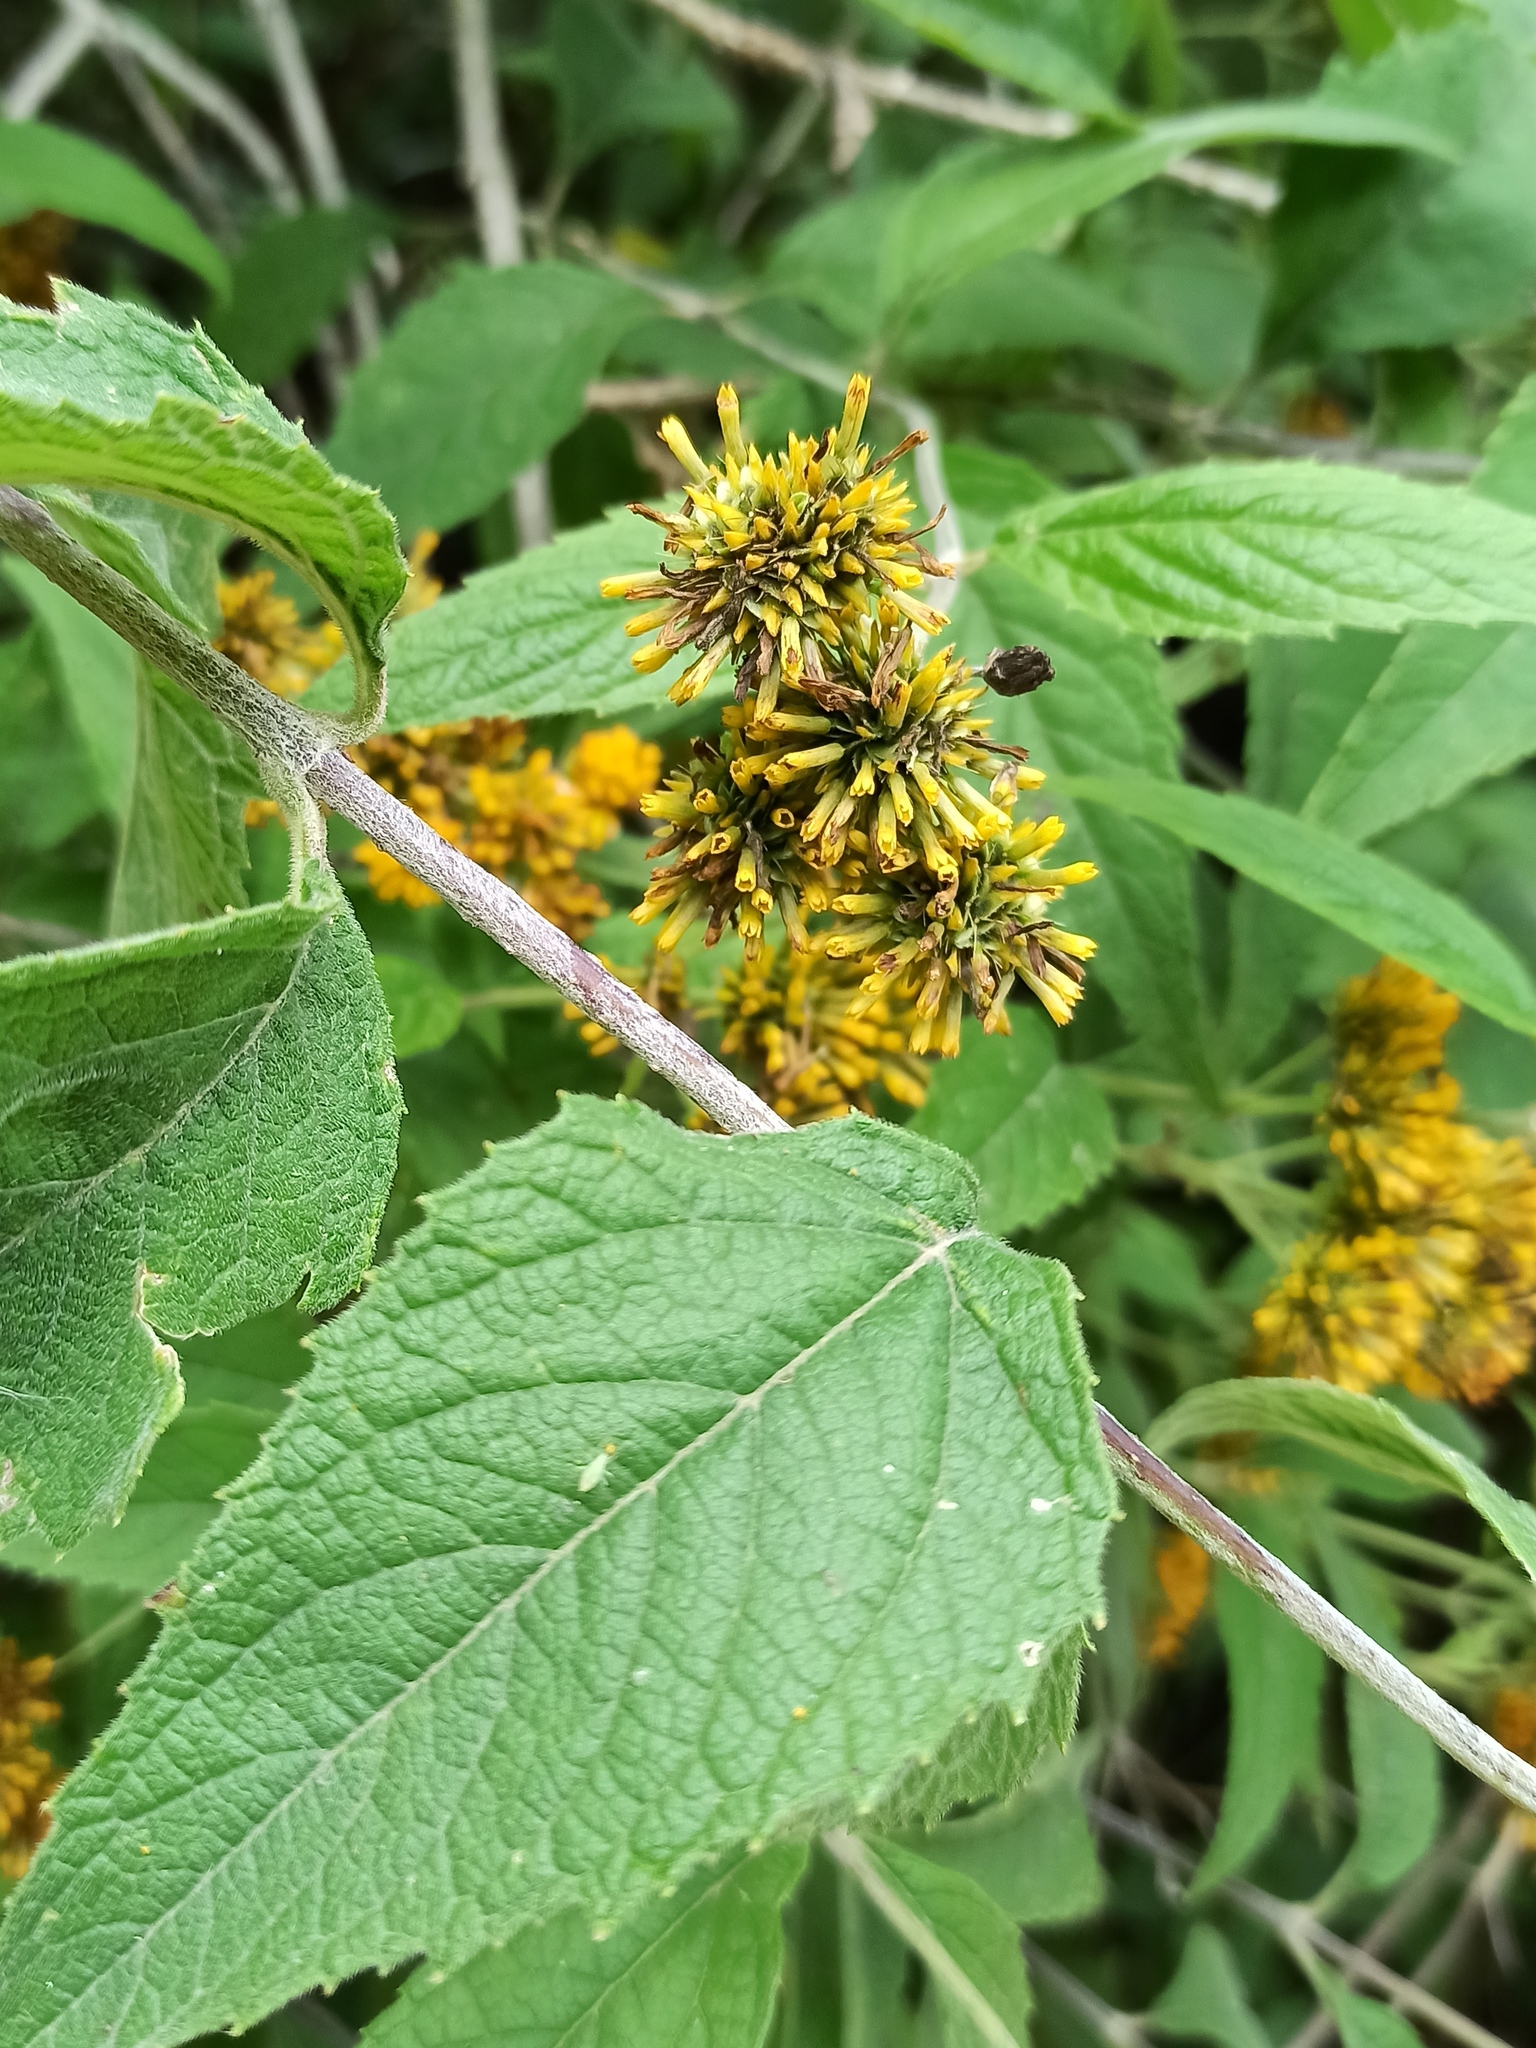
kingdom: Plantae
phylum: Tracheophyta
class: Magnoliopsida
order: Asterales
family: Asteraceae
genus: Verbesina
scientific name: Verbesina serrata
